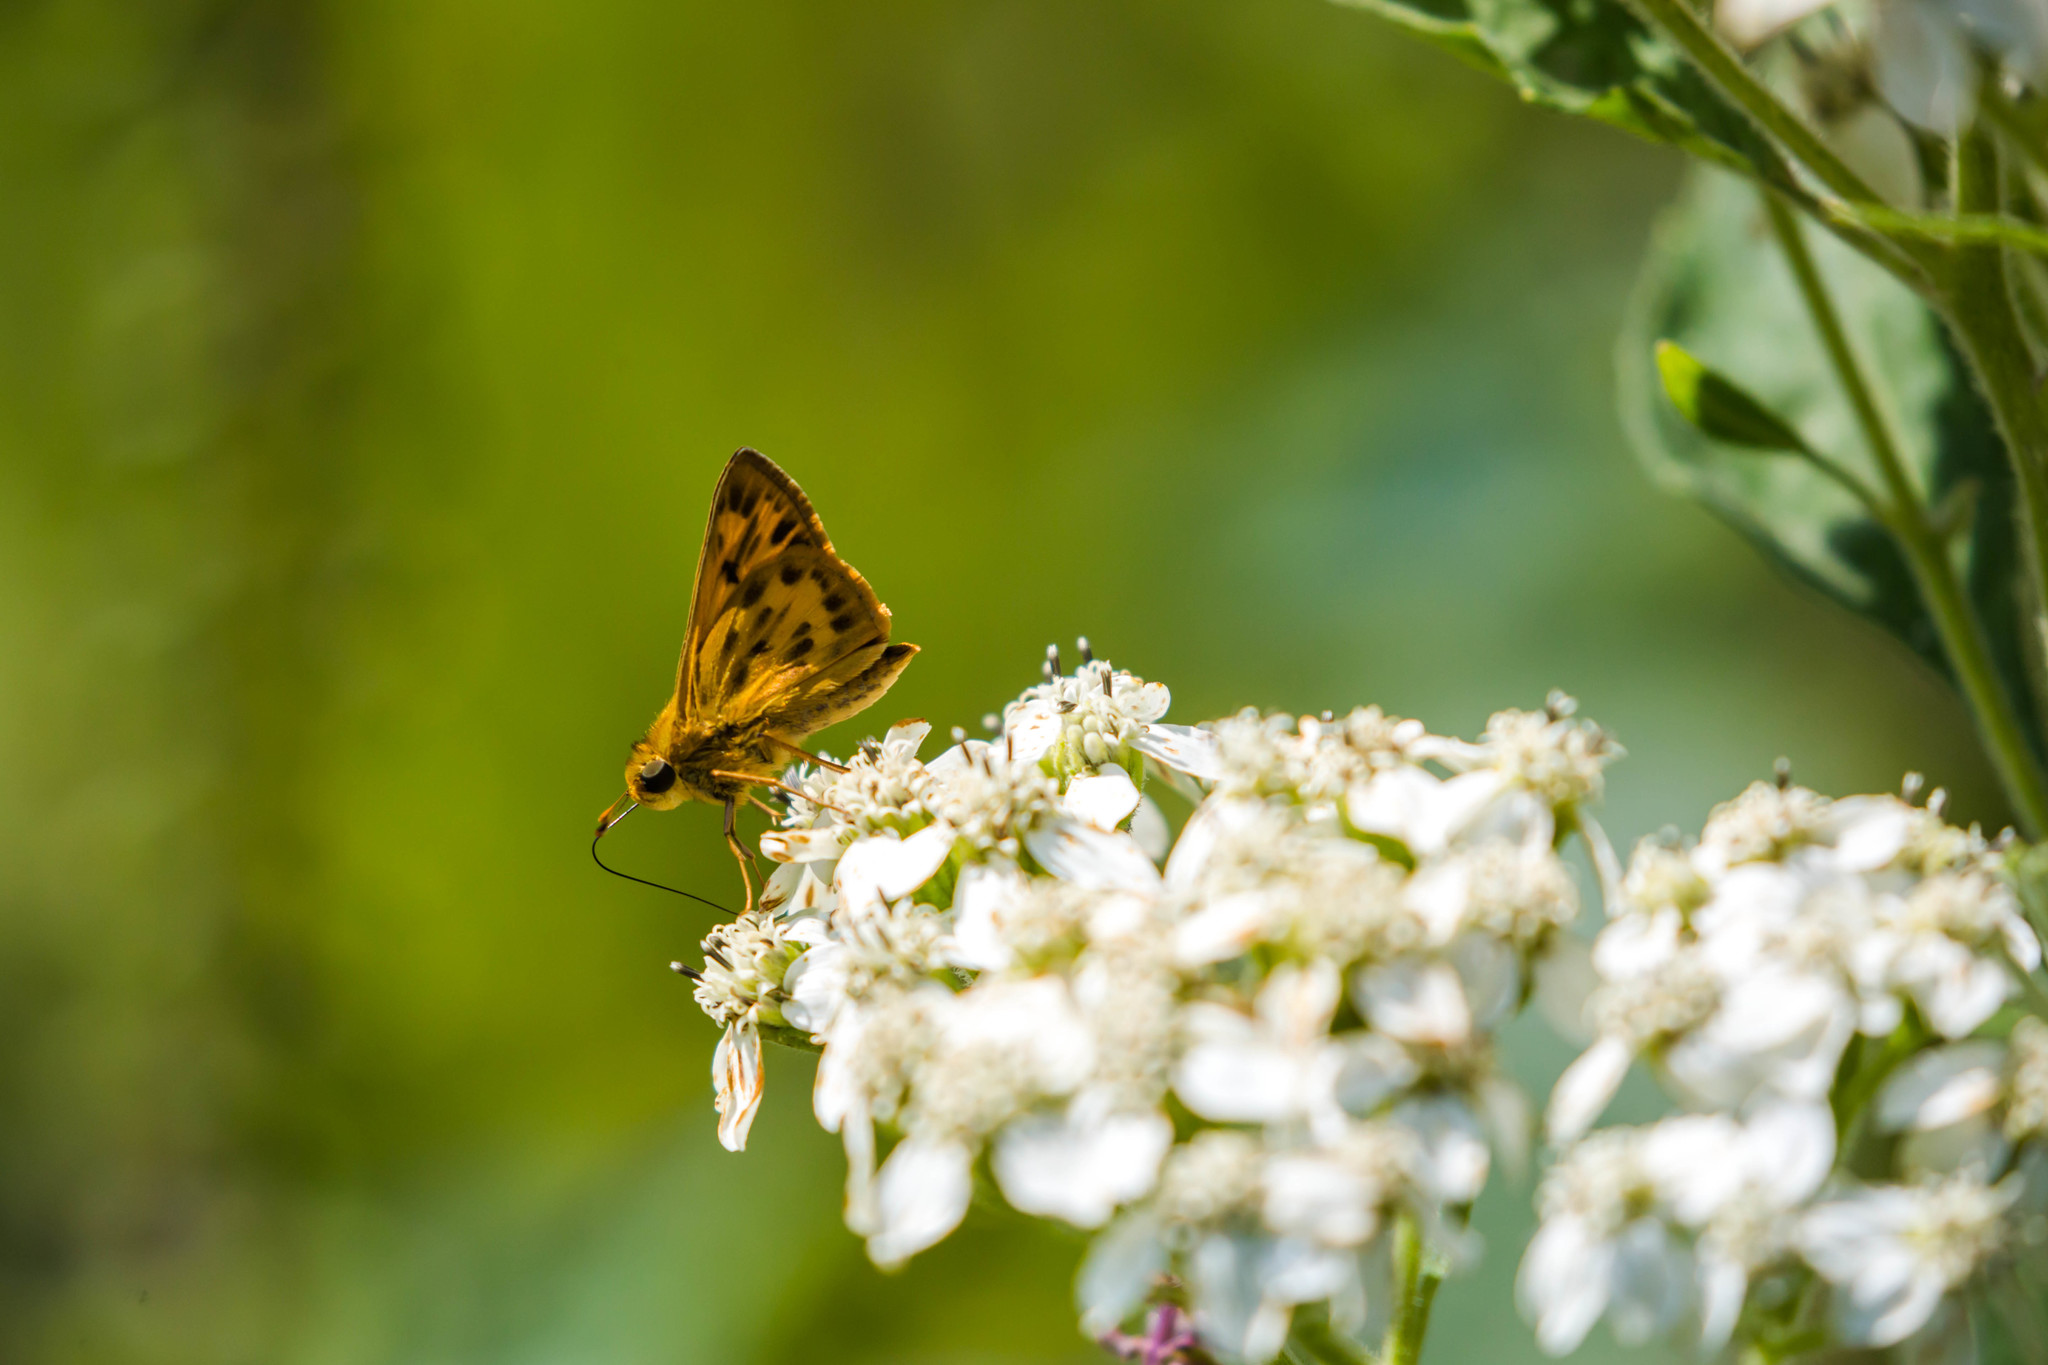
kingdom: Animalia
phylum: Arthropoda
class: Insecta
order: Lepidoptera
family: Hesperiidae
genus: Hylephila
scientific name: Hylephila phyleus
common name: Fiery skipper
